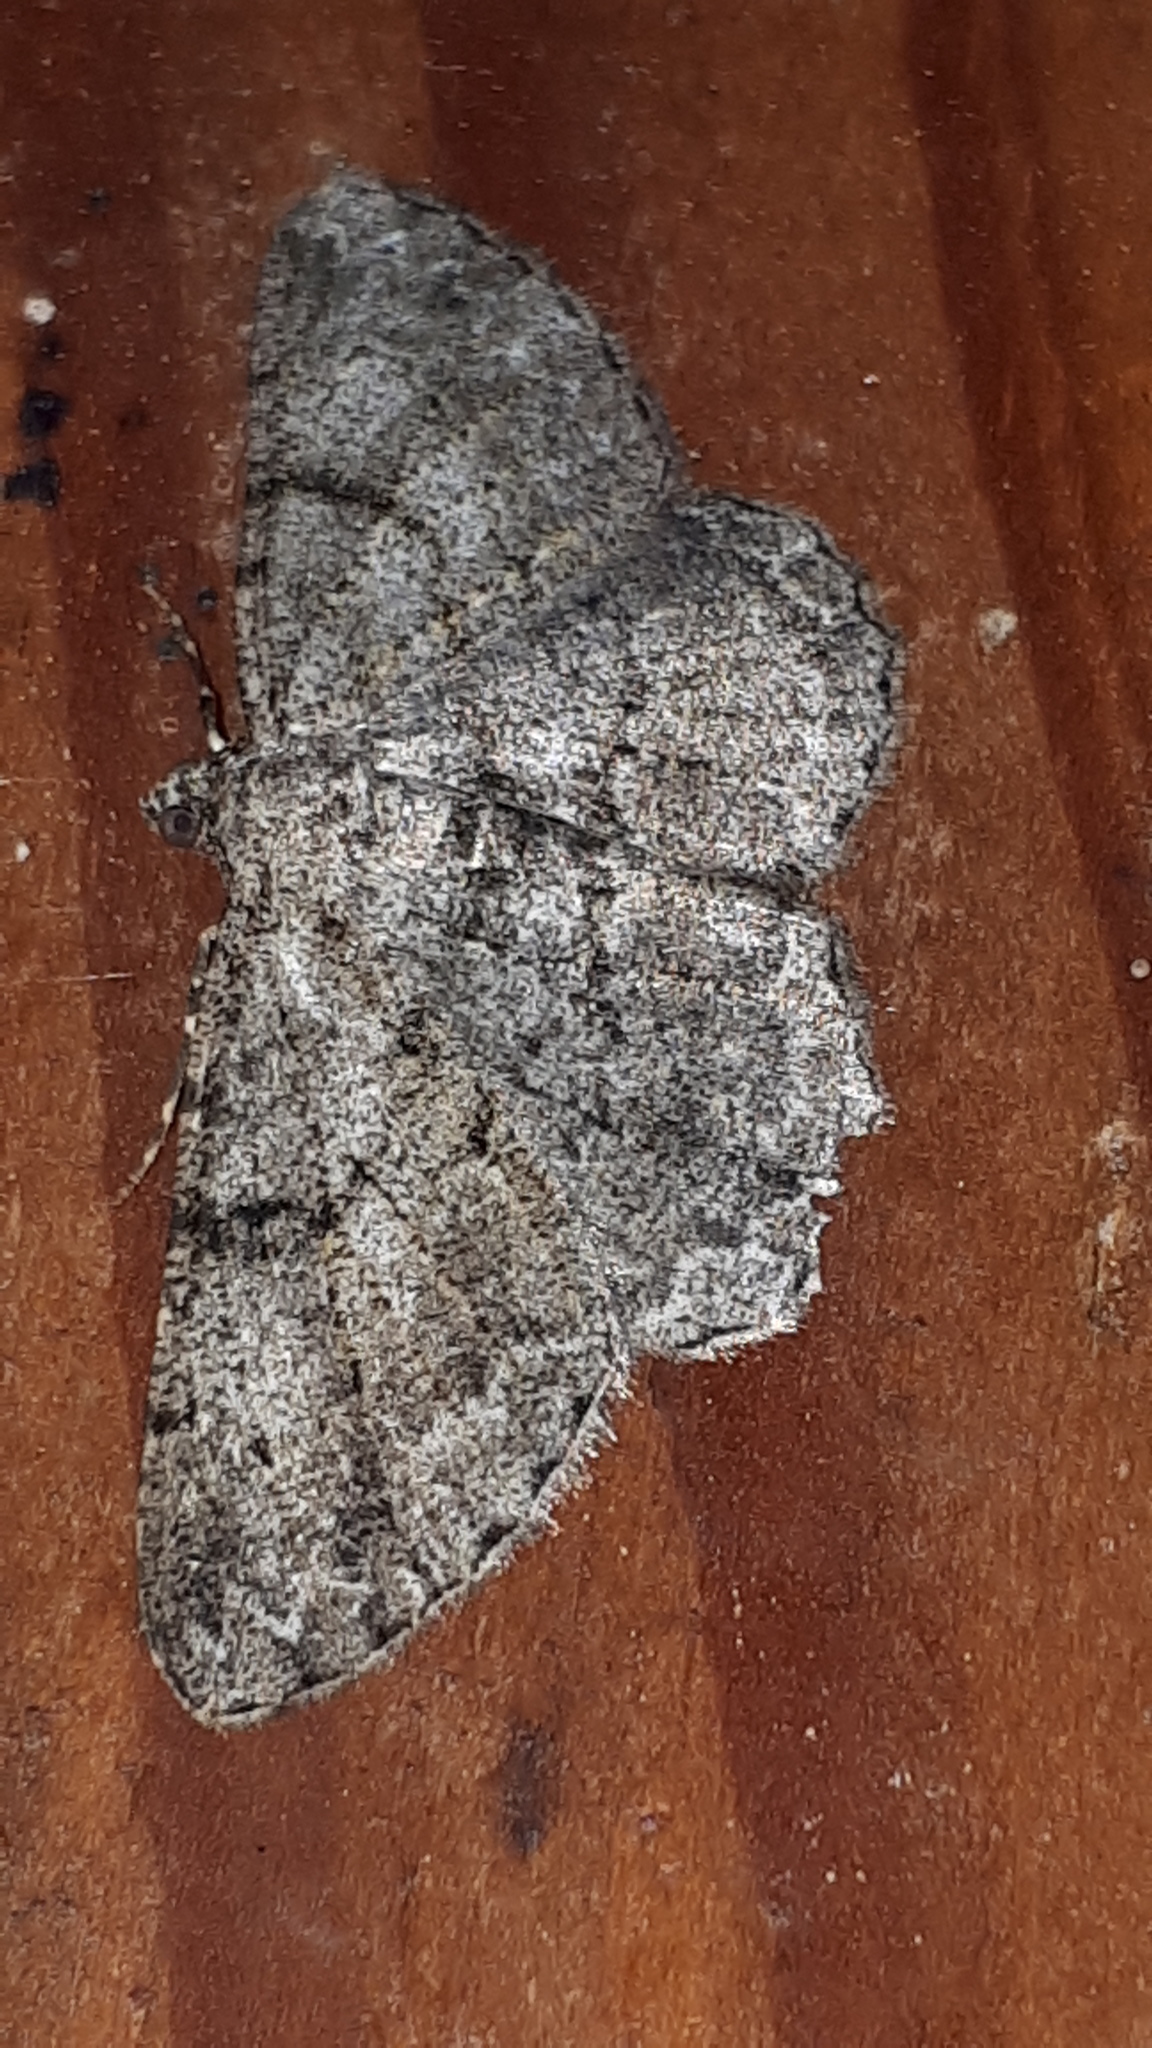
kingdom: Animalia
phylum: Arthropoda
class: Insecta
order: Lepidoptera
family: Geometridae
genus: Peribatodes
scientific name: Peribatodes rhomboidaria
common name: Willow beauty
